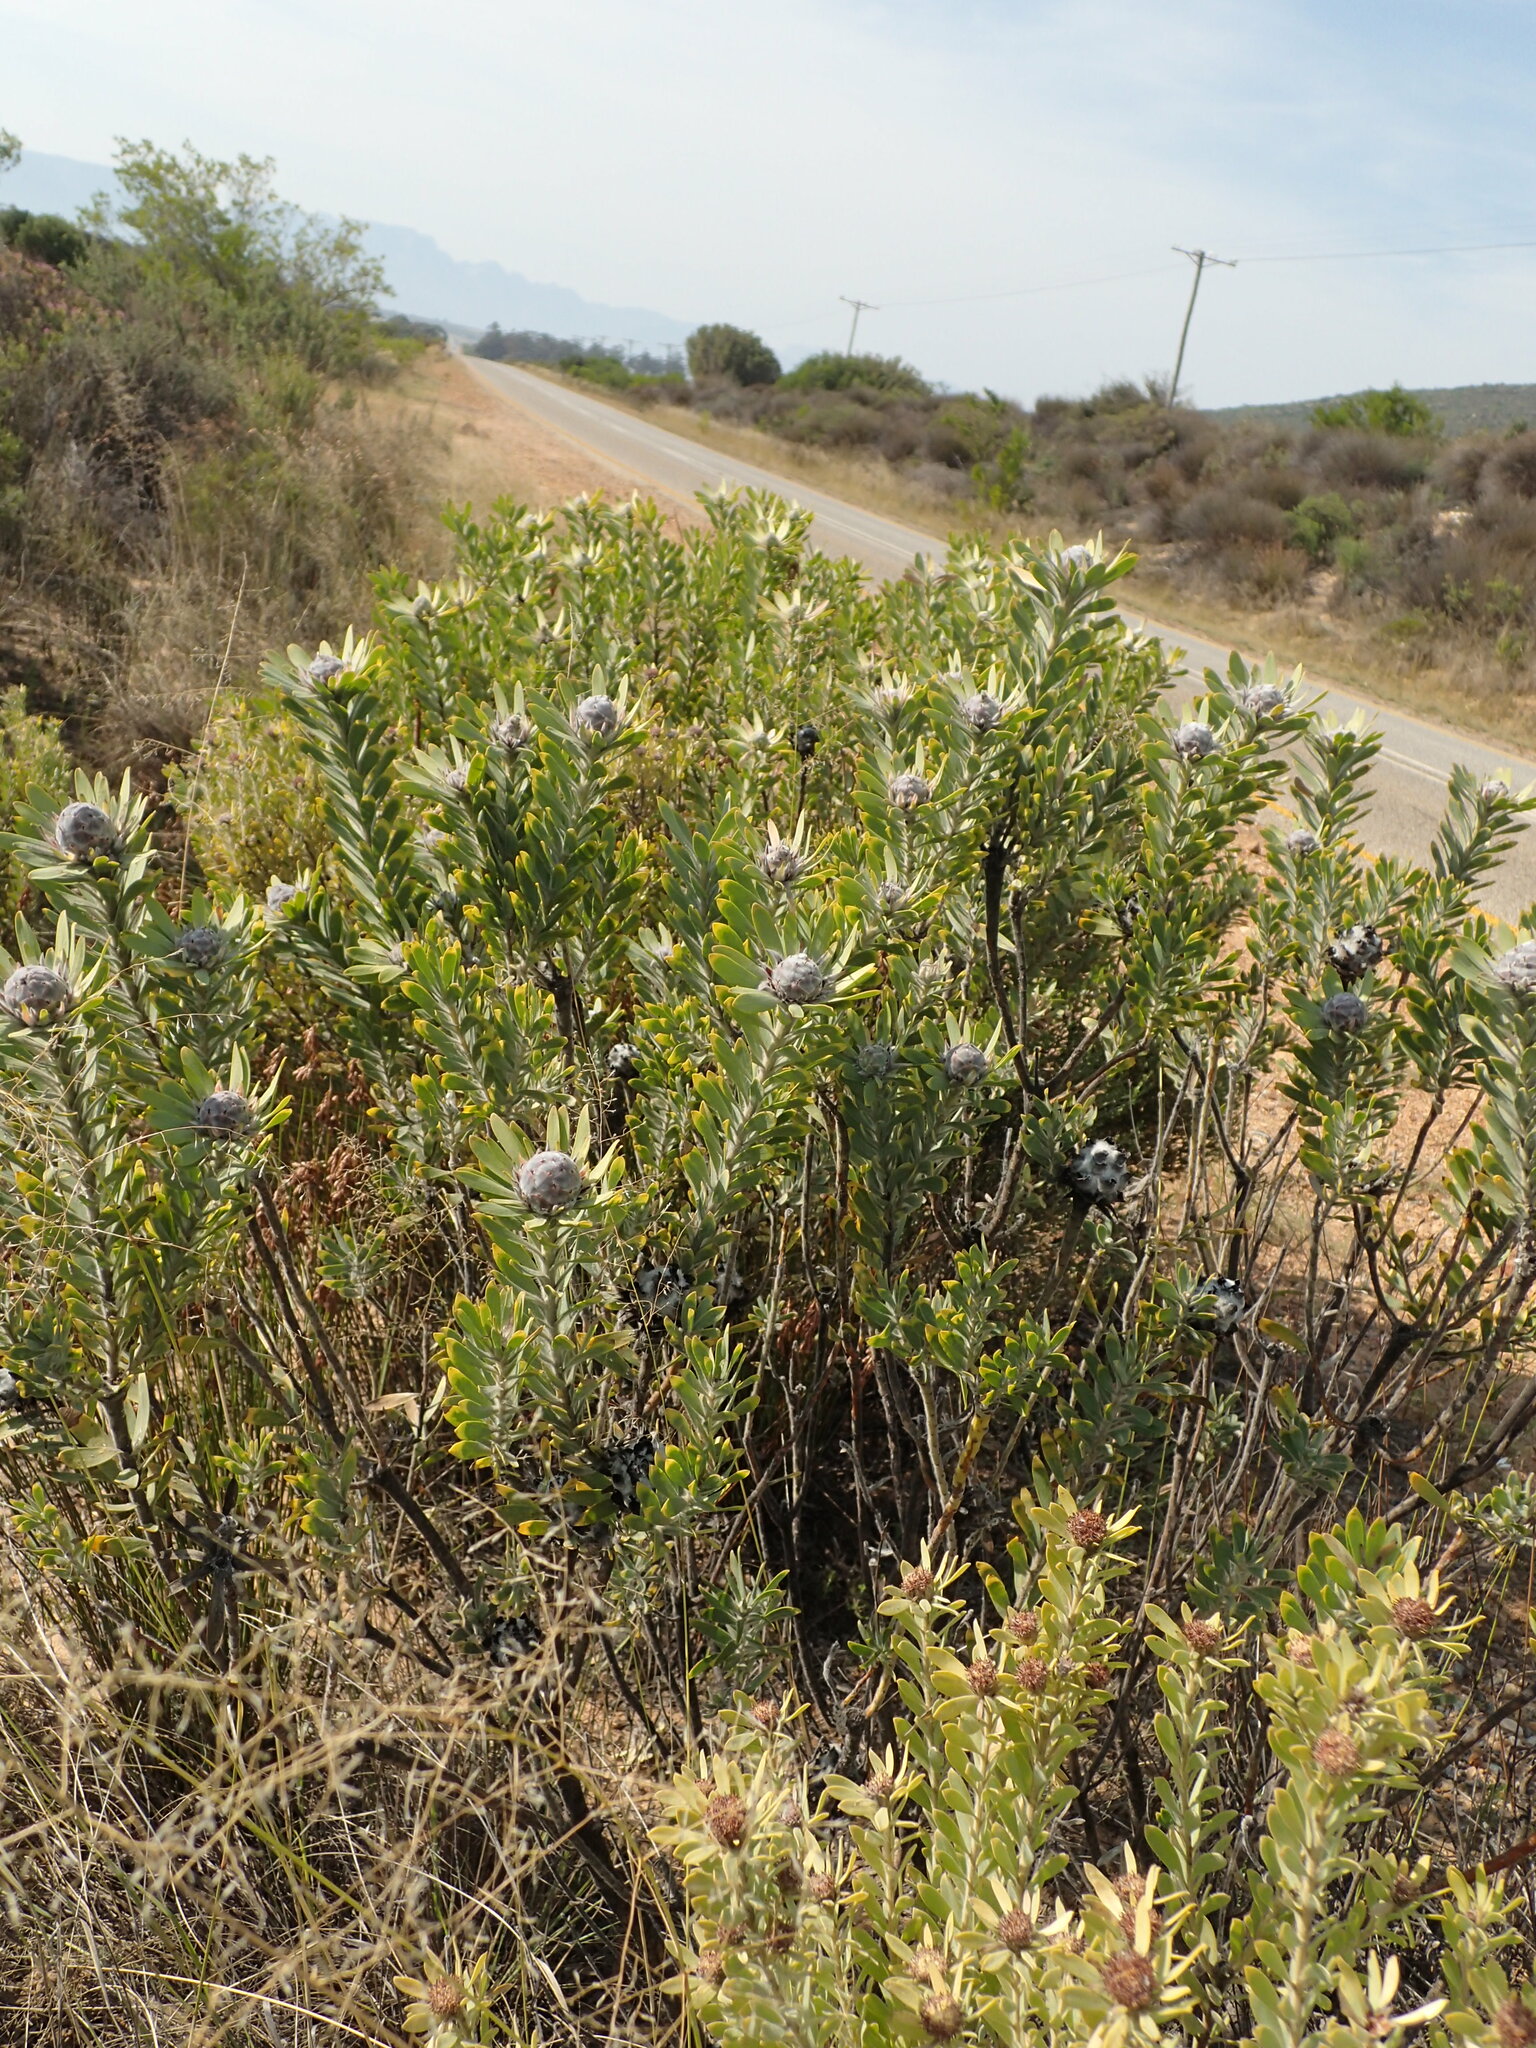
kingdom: Plantae
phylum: Tracheophyta
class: Magnoliopsida
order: Proteales
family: Proteaceae
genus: Leucadendron
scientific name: Leucadendron pubescens
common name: Grey conebush
